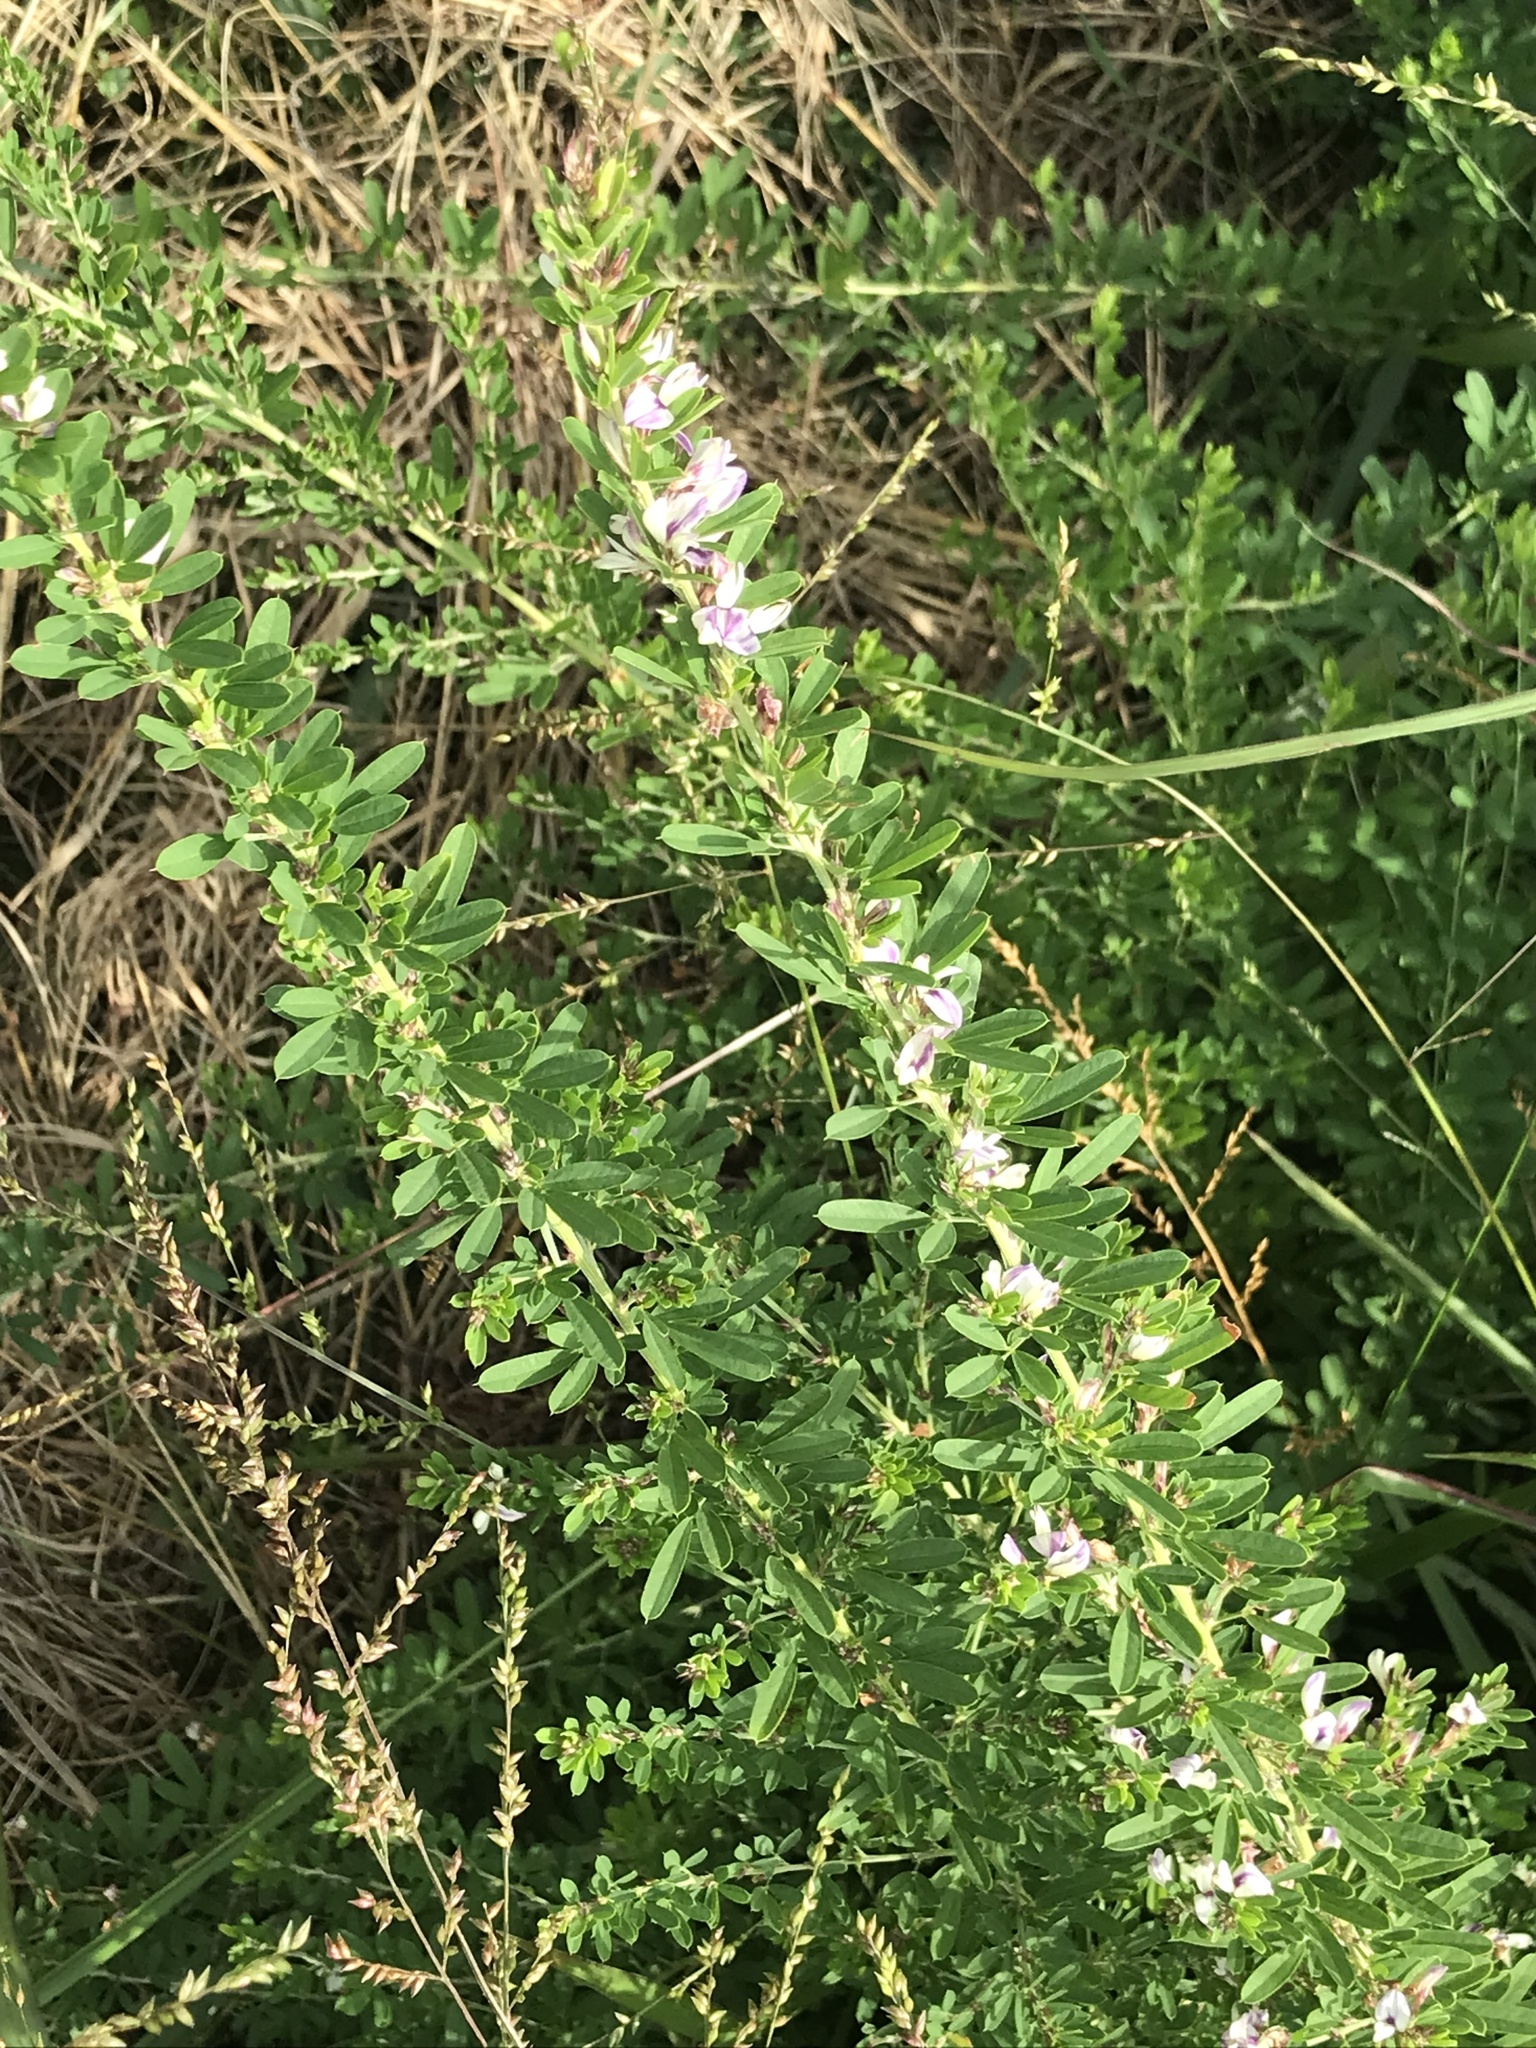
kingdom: Plantae
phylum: Tracheophyta
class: Magnoliopsida
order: Fabales
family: Fabaceae
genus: Lespedeza
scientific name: Lespedeza cuneata
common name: Chinese bush-clover
